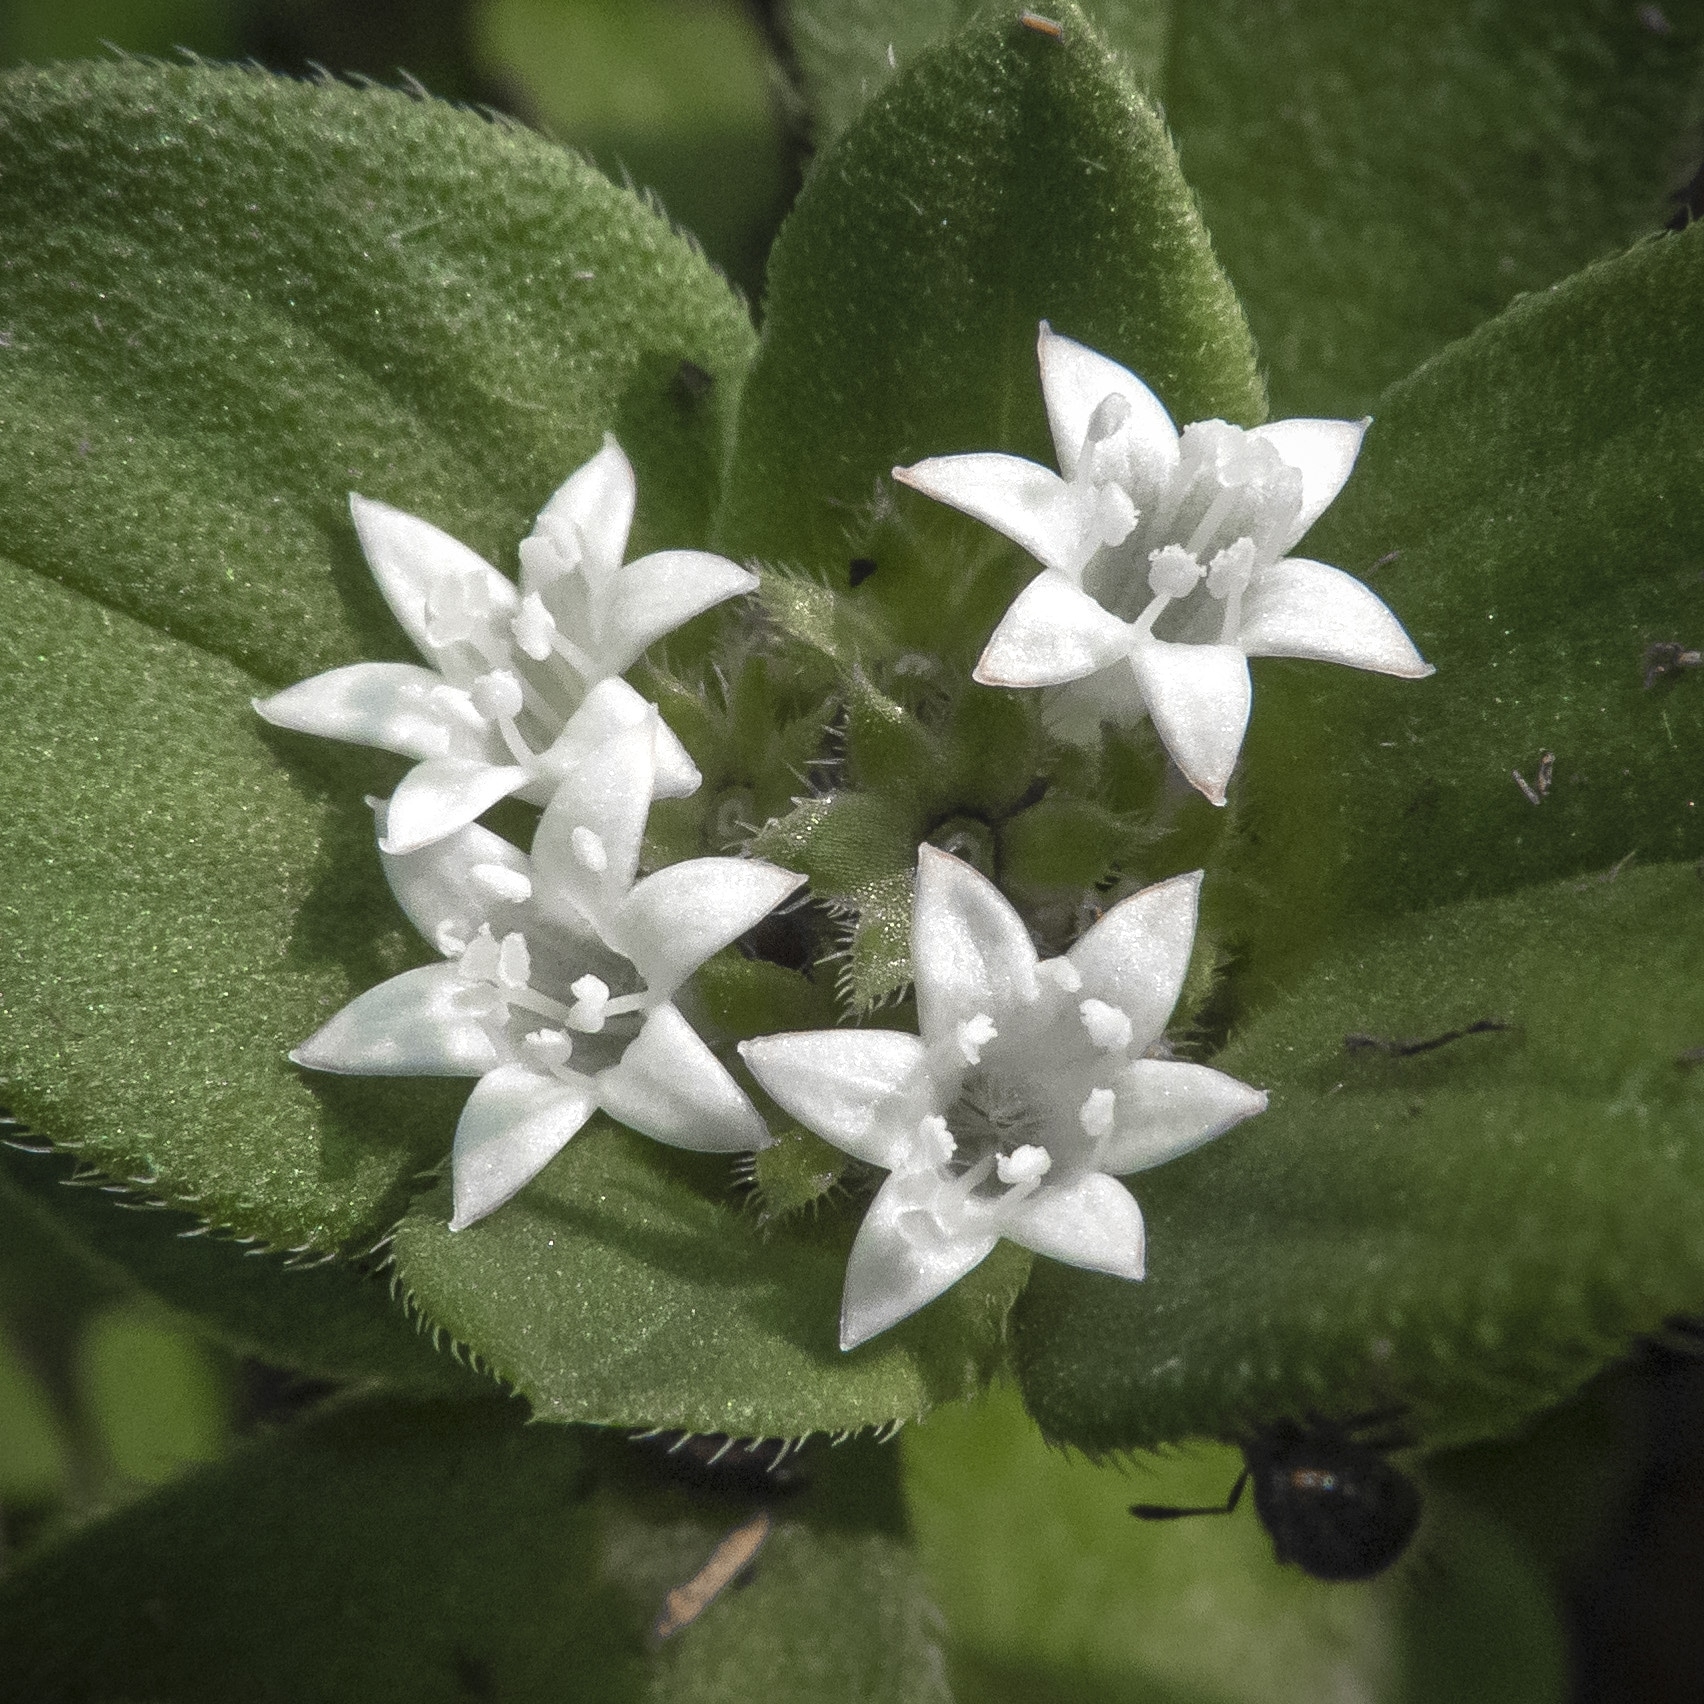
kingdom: Plantae
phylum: Tracheophyta
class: Magnoliopsida
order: Gentianales
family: Rubiaceae
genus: Richardia
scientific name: Richardia scabra
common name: Rough mexican clover
